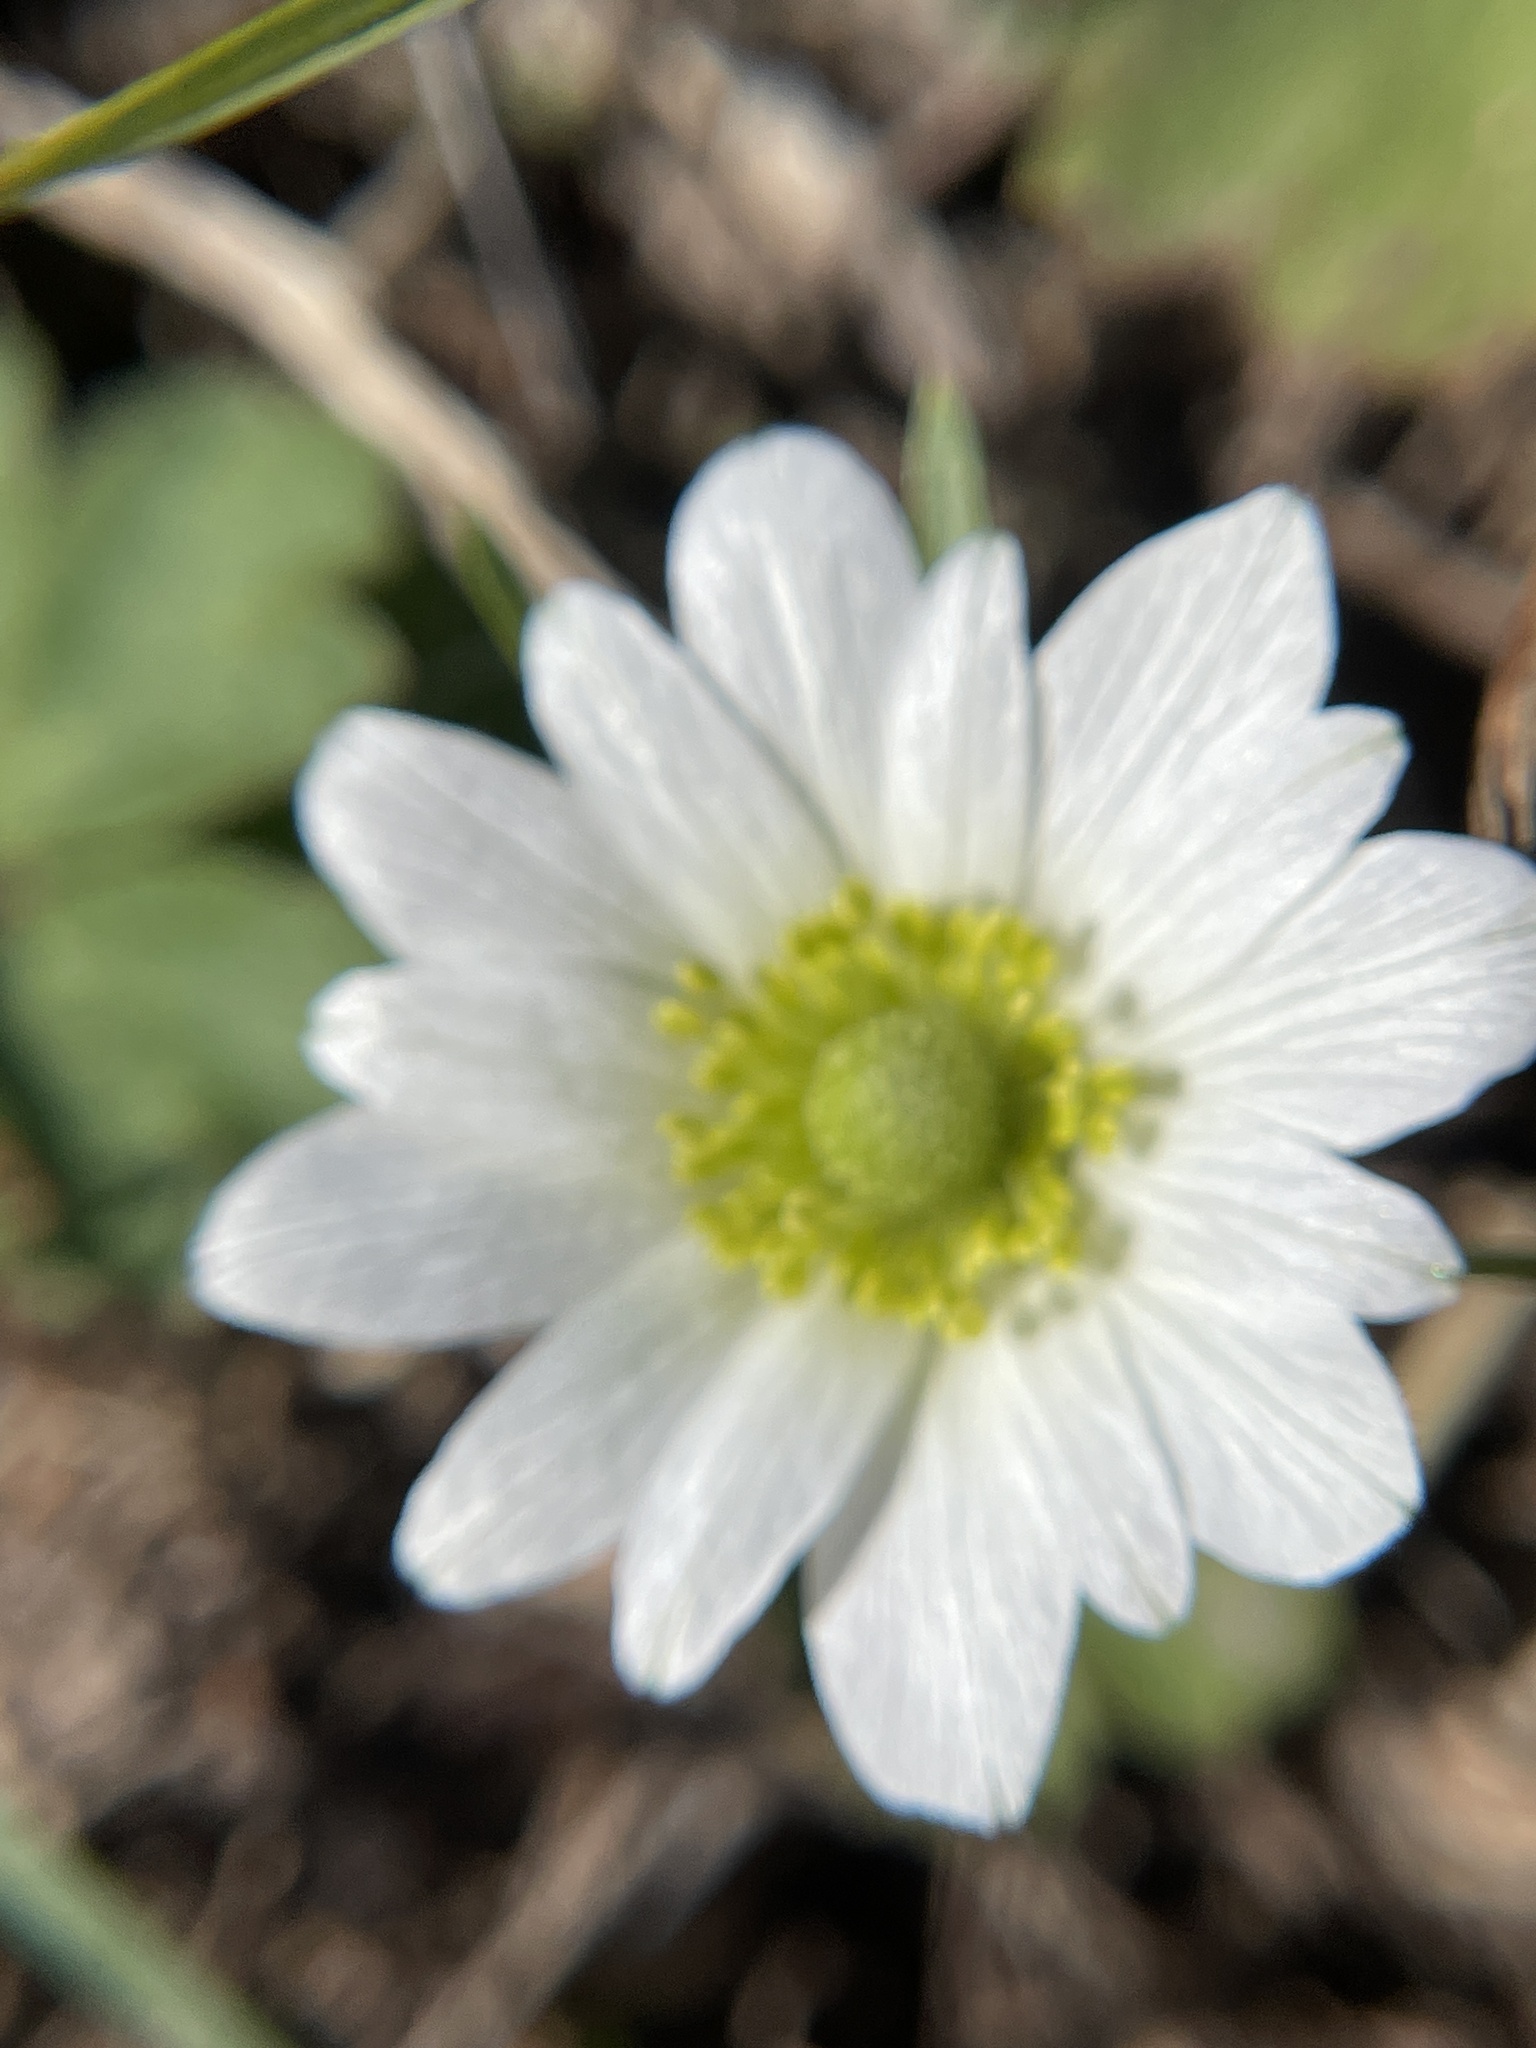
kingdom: Plantae
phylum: Tracheophyta
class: Magnoliopsida
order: Ranunculales
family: Ranunculaceae
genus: Anemone
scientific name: Anemone berlandieri
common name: Ten-petal anemone
